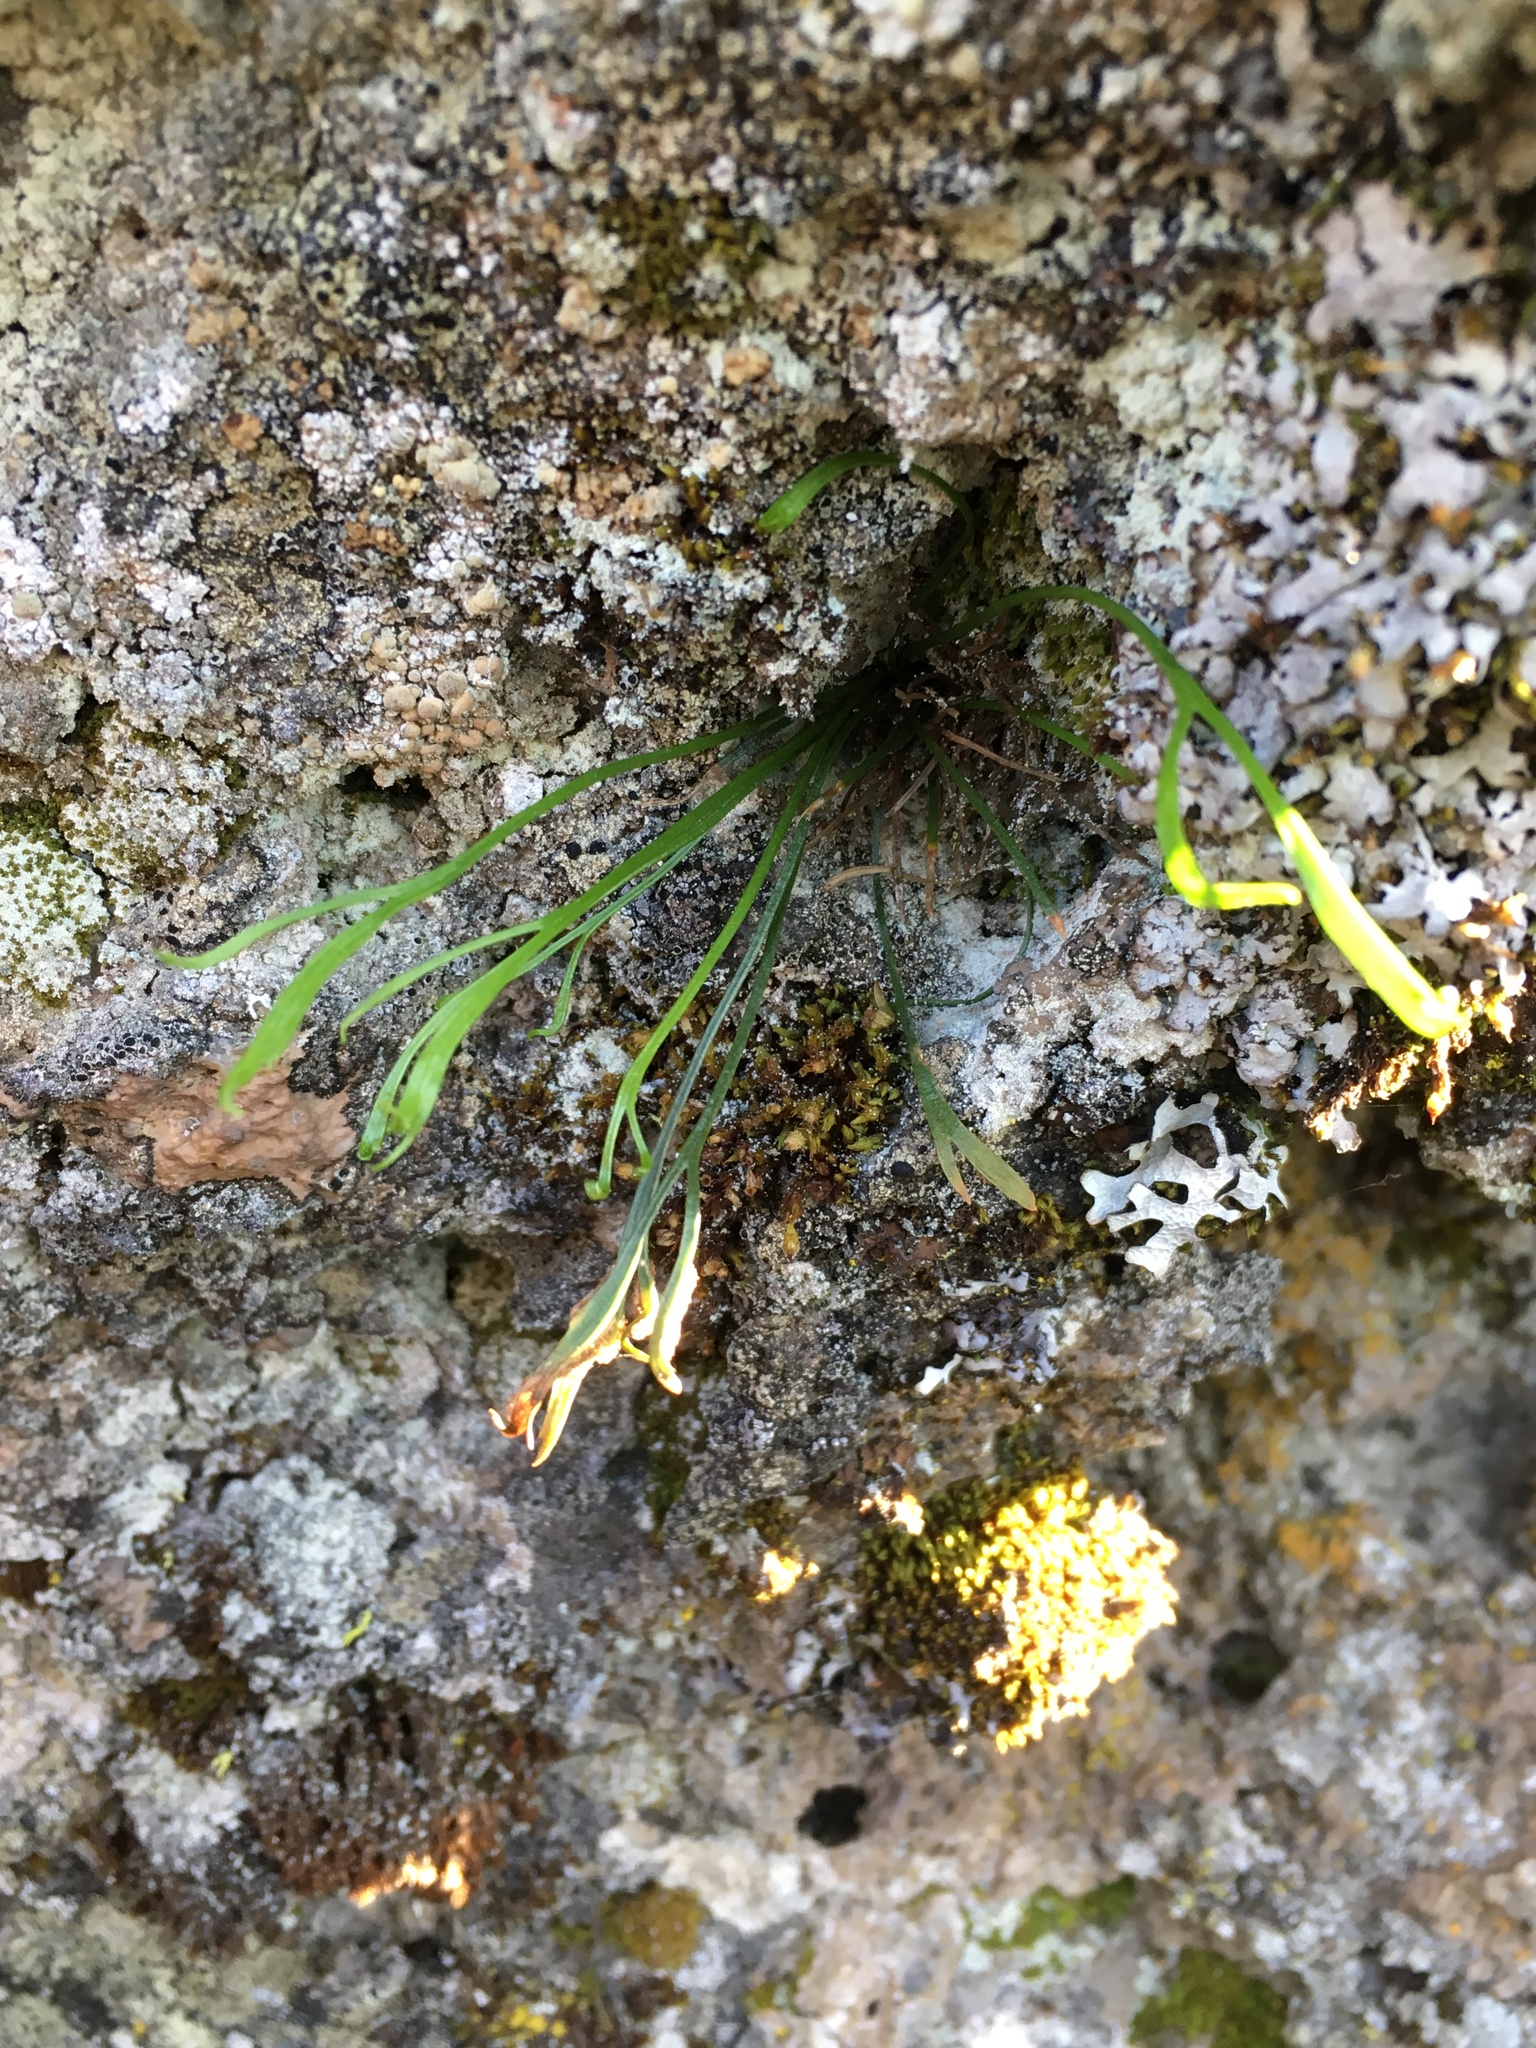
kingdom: Plantae
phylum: Tracheophyta
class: Polypodiopsida
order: Polypodiales
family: Aspleniaceae
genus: Asplenium
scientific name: Asplenium septentrionale
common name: Forked spleenwort
